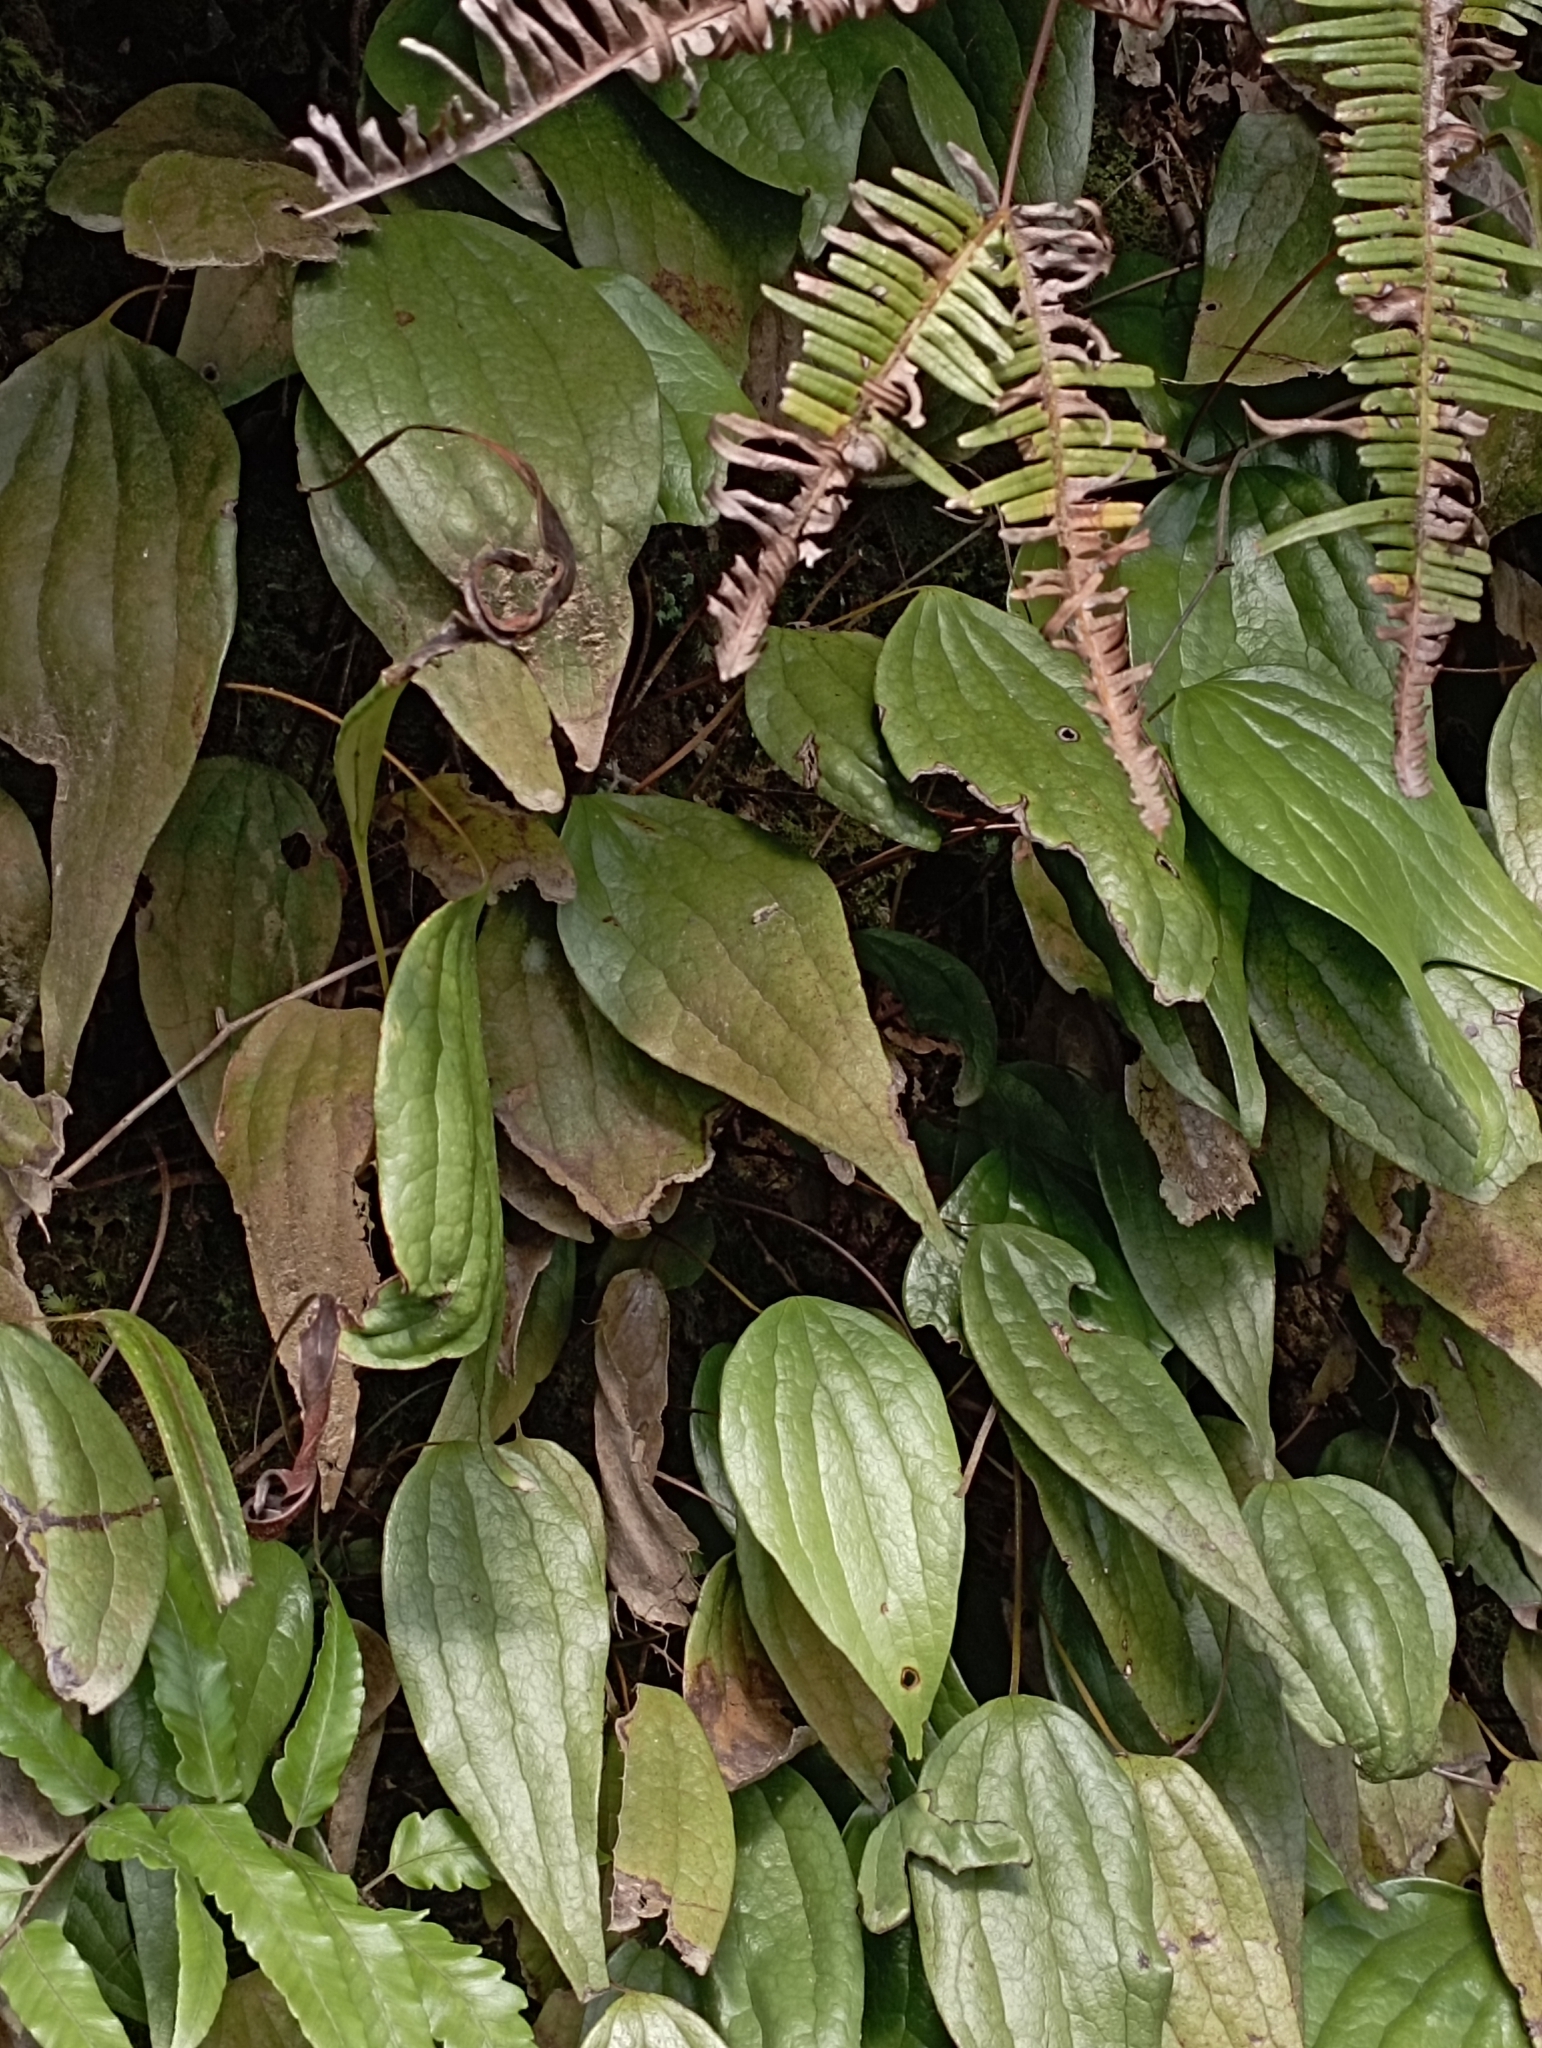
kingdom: Plantae
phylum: Tracheophyta
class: Polypodiopsida
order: Gleicheniales
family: Dipteridaceae
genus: Cheiropleuria
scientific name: Cheiropleuria integrifolia
